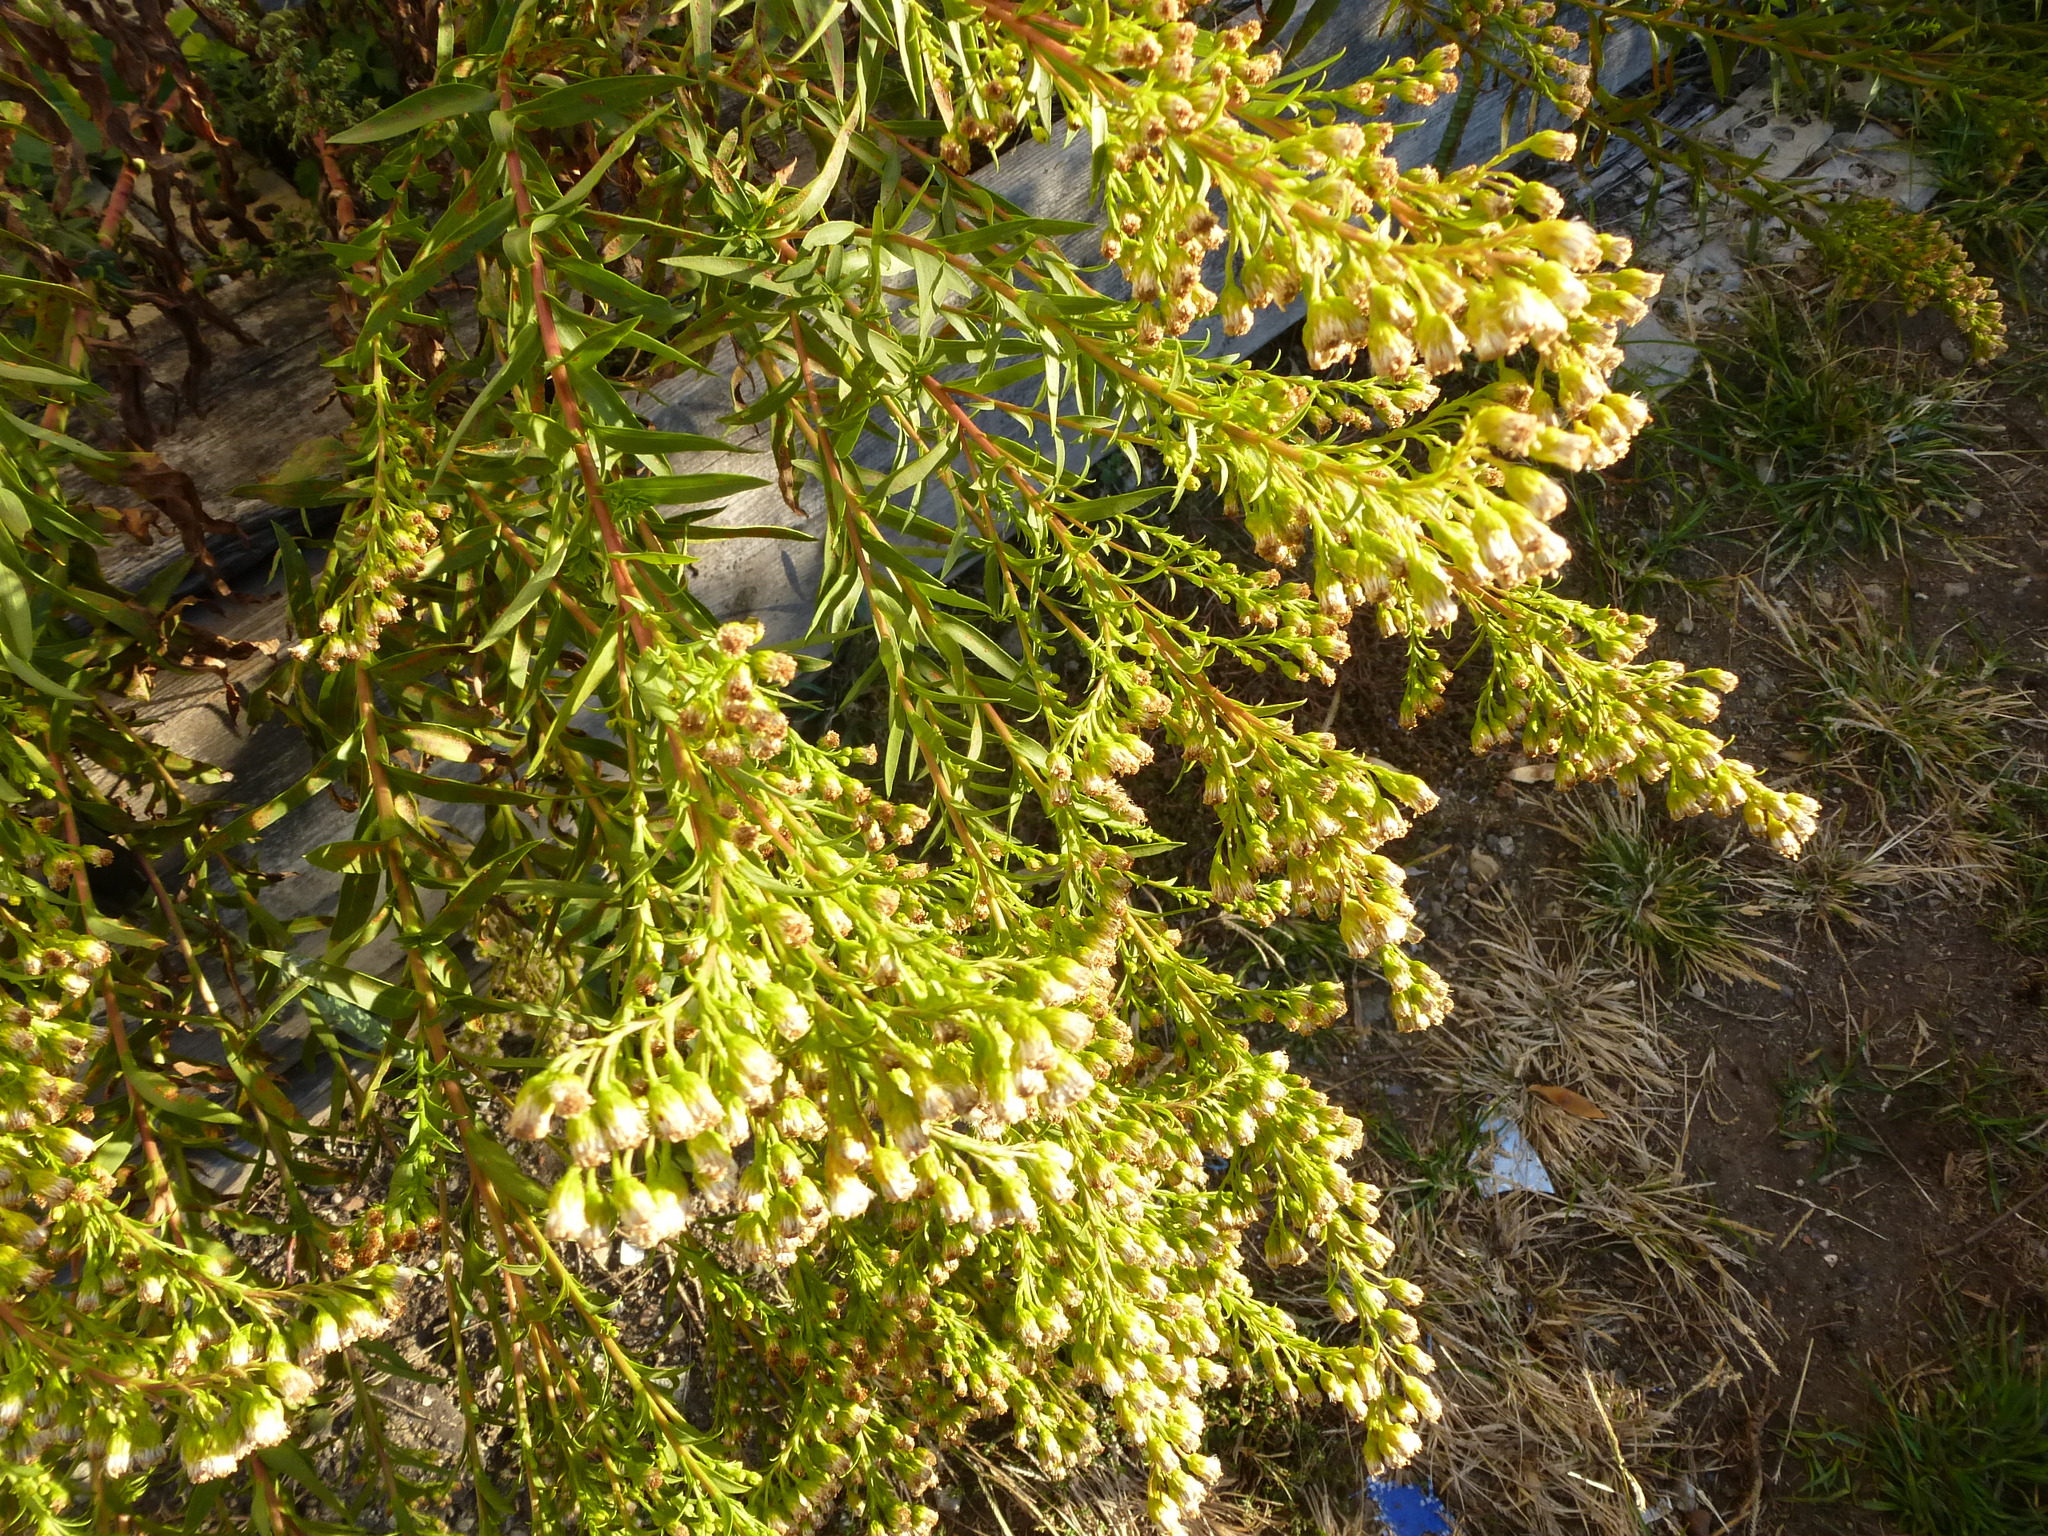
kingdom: Plantae
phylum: Tracheophyta
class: Magnoliopsida
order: Asterales
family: Asteraceae
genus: Solidago
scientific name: Solidago sempervirens
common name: Salt-marsh goldenrod
